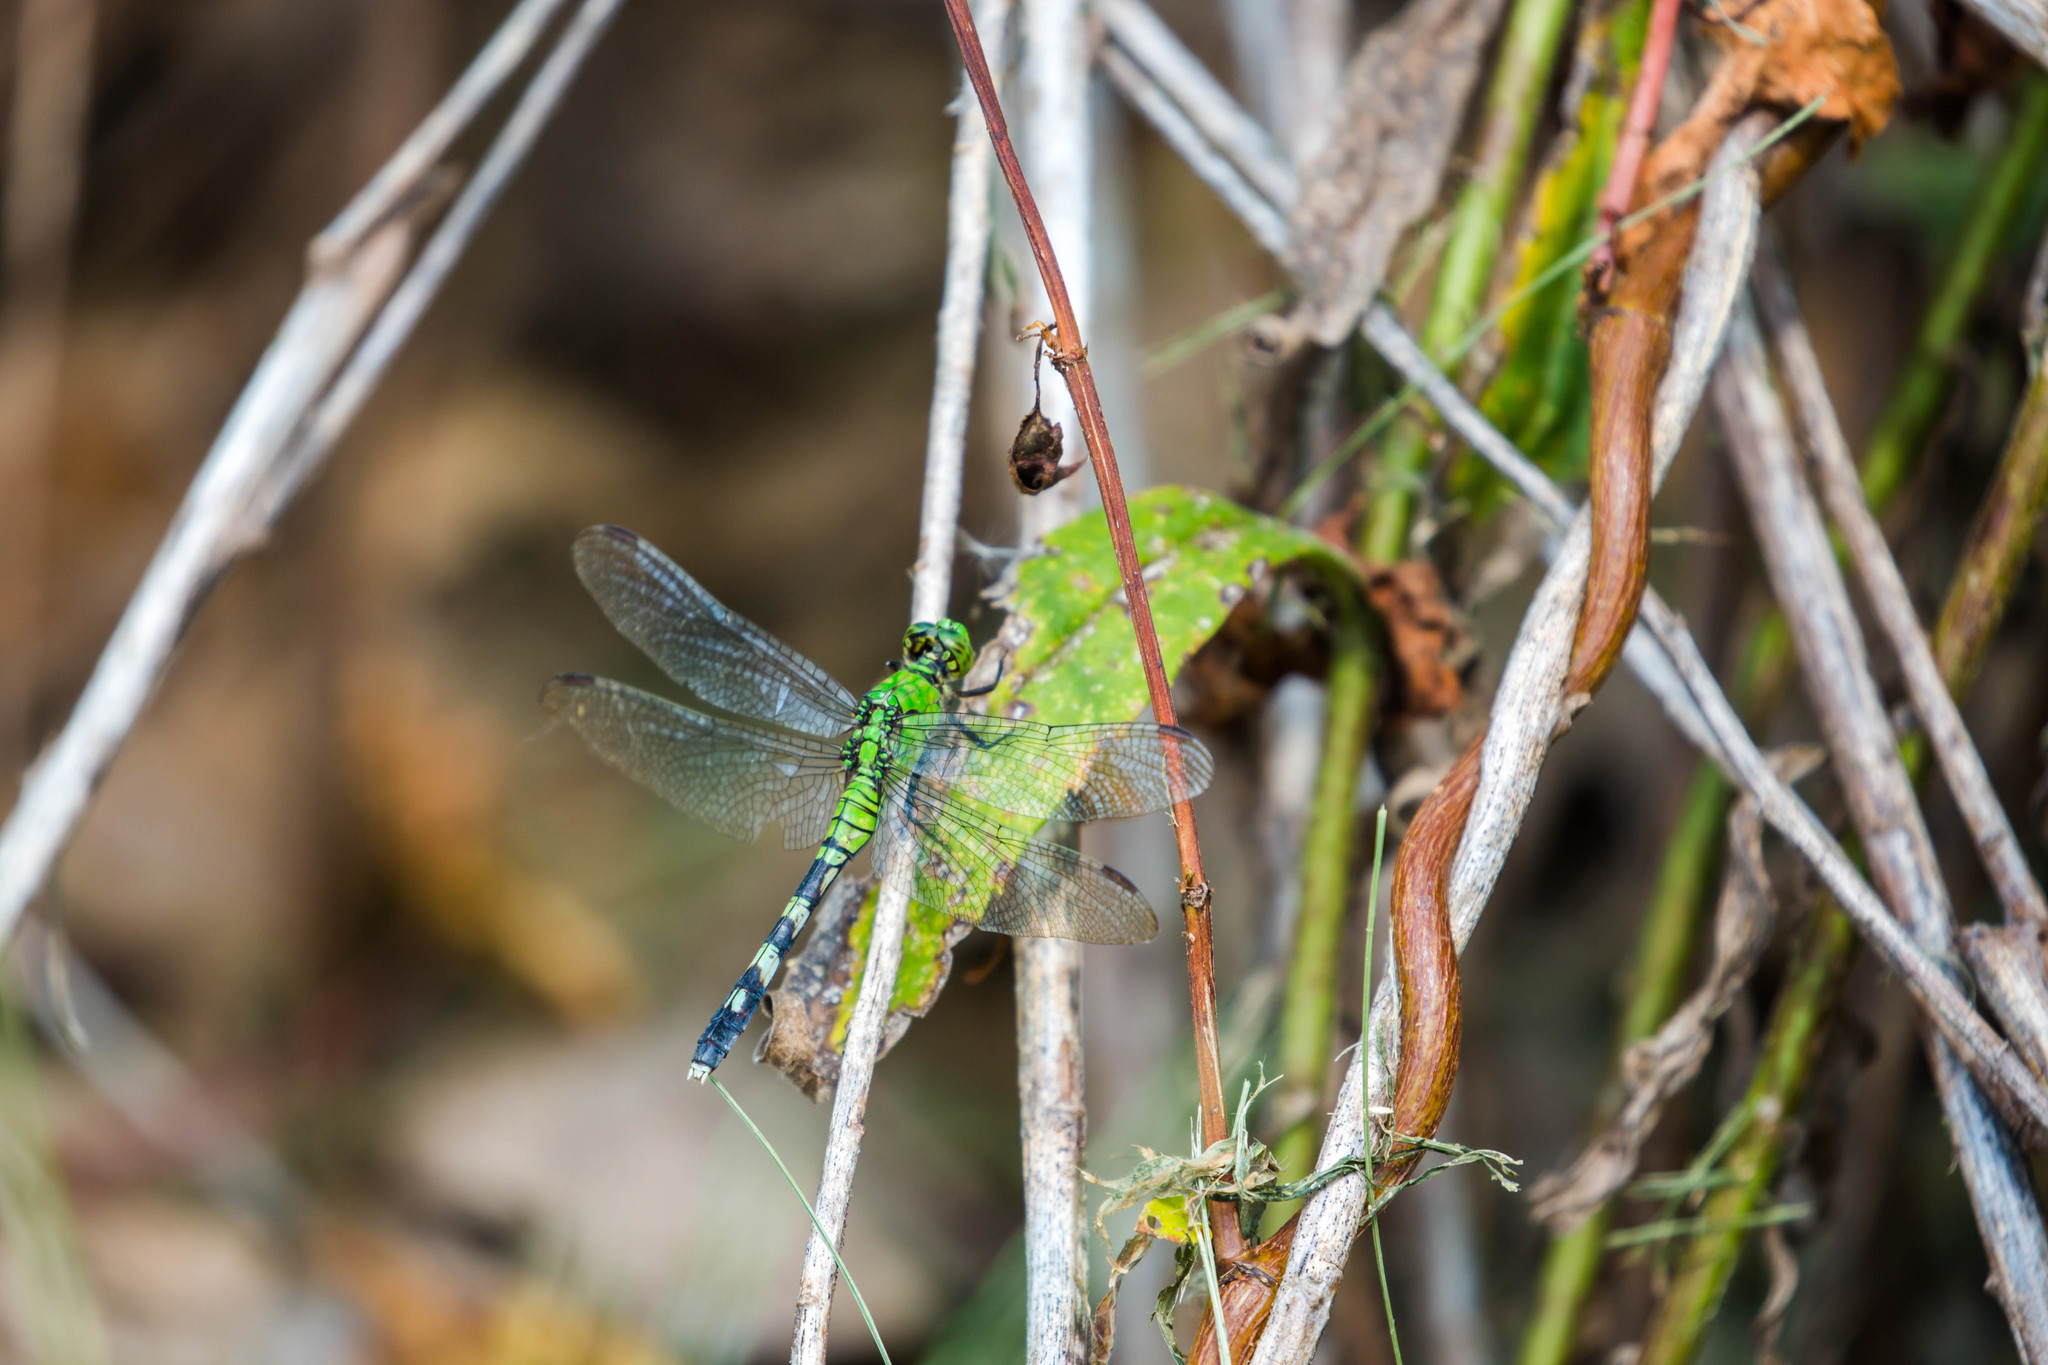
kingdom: Animalia
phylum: Arthropoda
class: Insecta
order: Odonata
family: Libellulidae
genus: Erythemis
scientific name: Erythemis simplicicollis
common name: Eastern pondhawk
